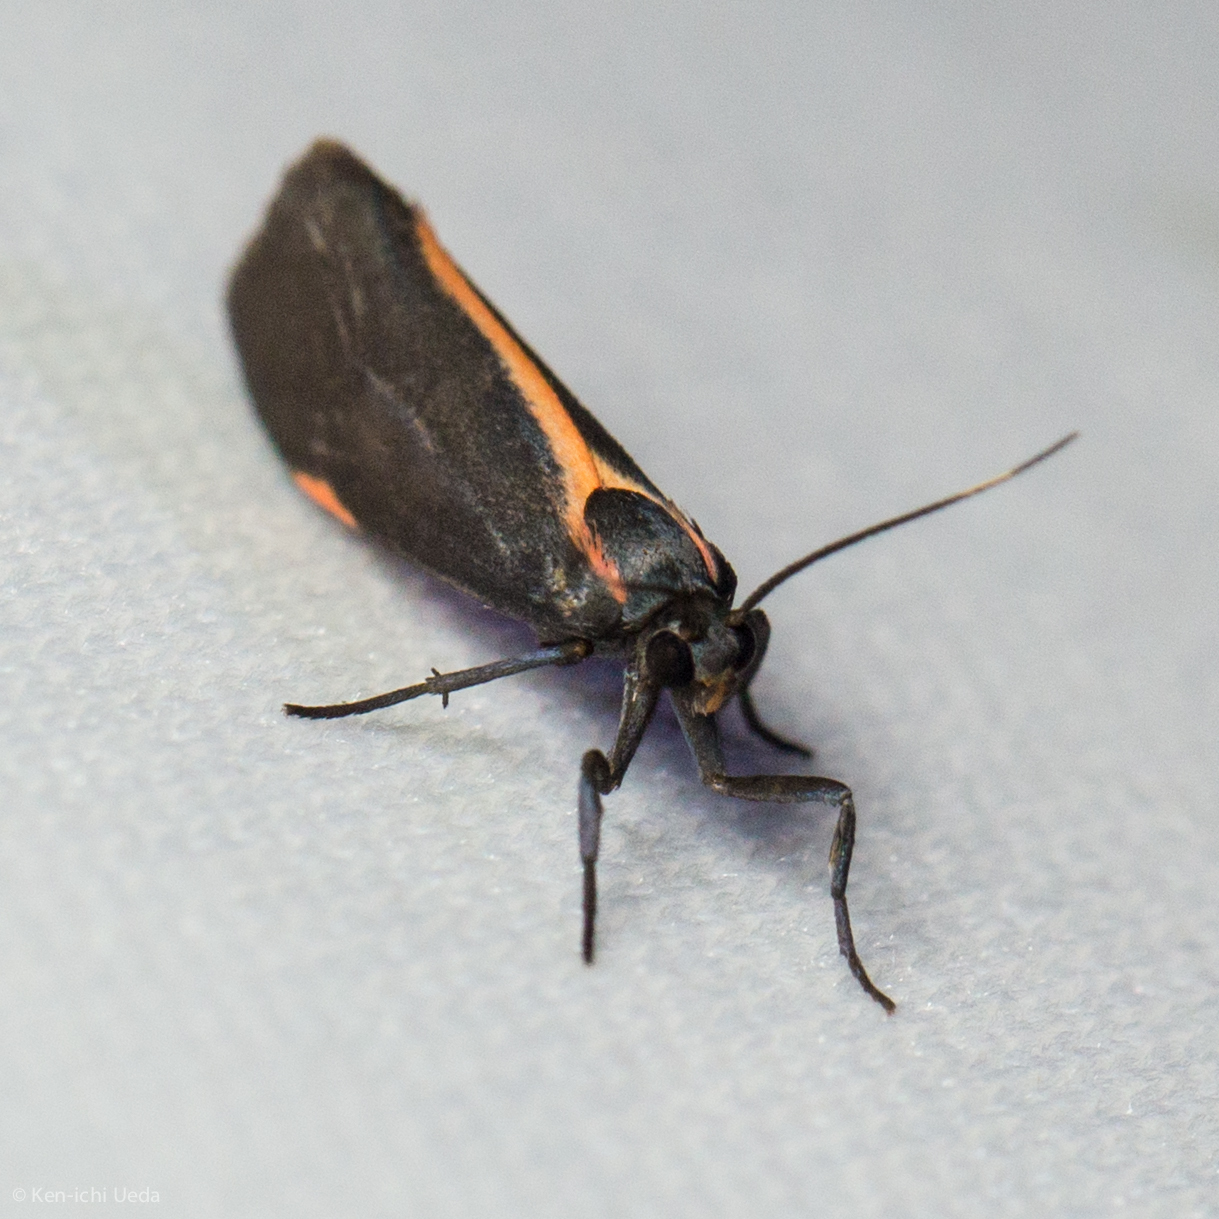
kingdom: Animalia
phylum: Arthropoda
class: Insecta
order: Lepidoptera
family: Erebidae
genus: Cisthene
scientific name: Cisthene juanita
